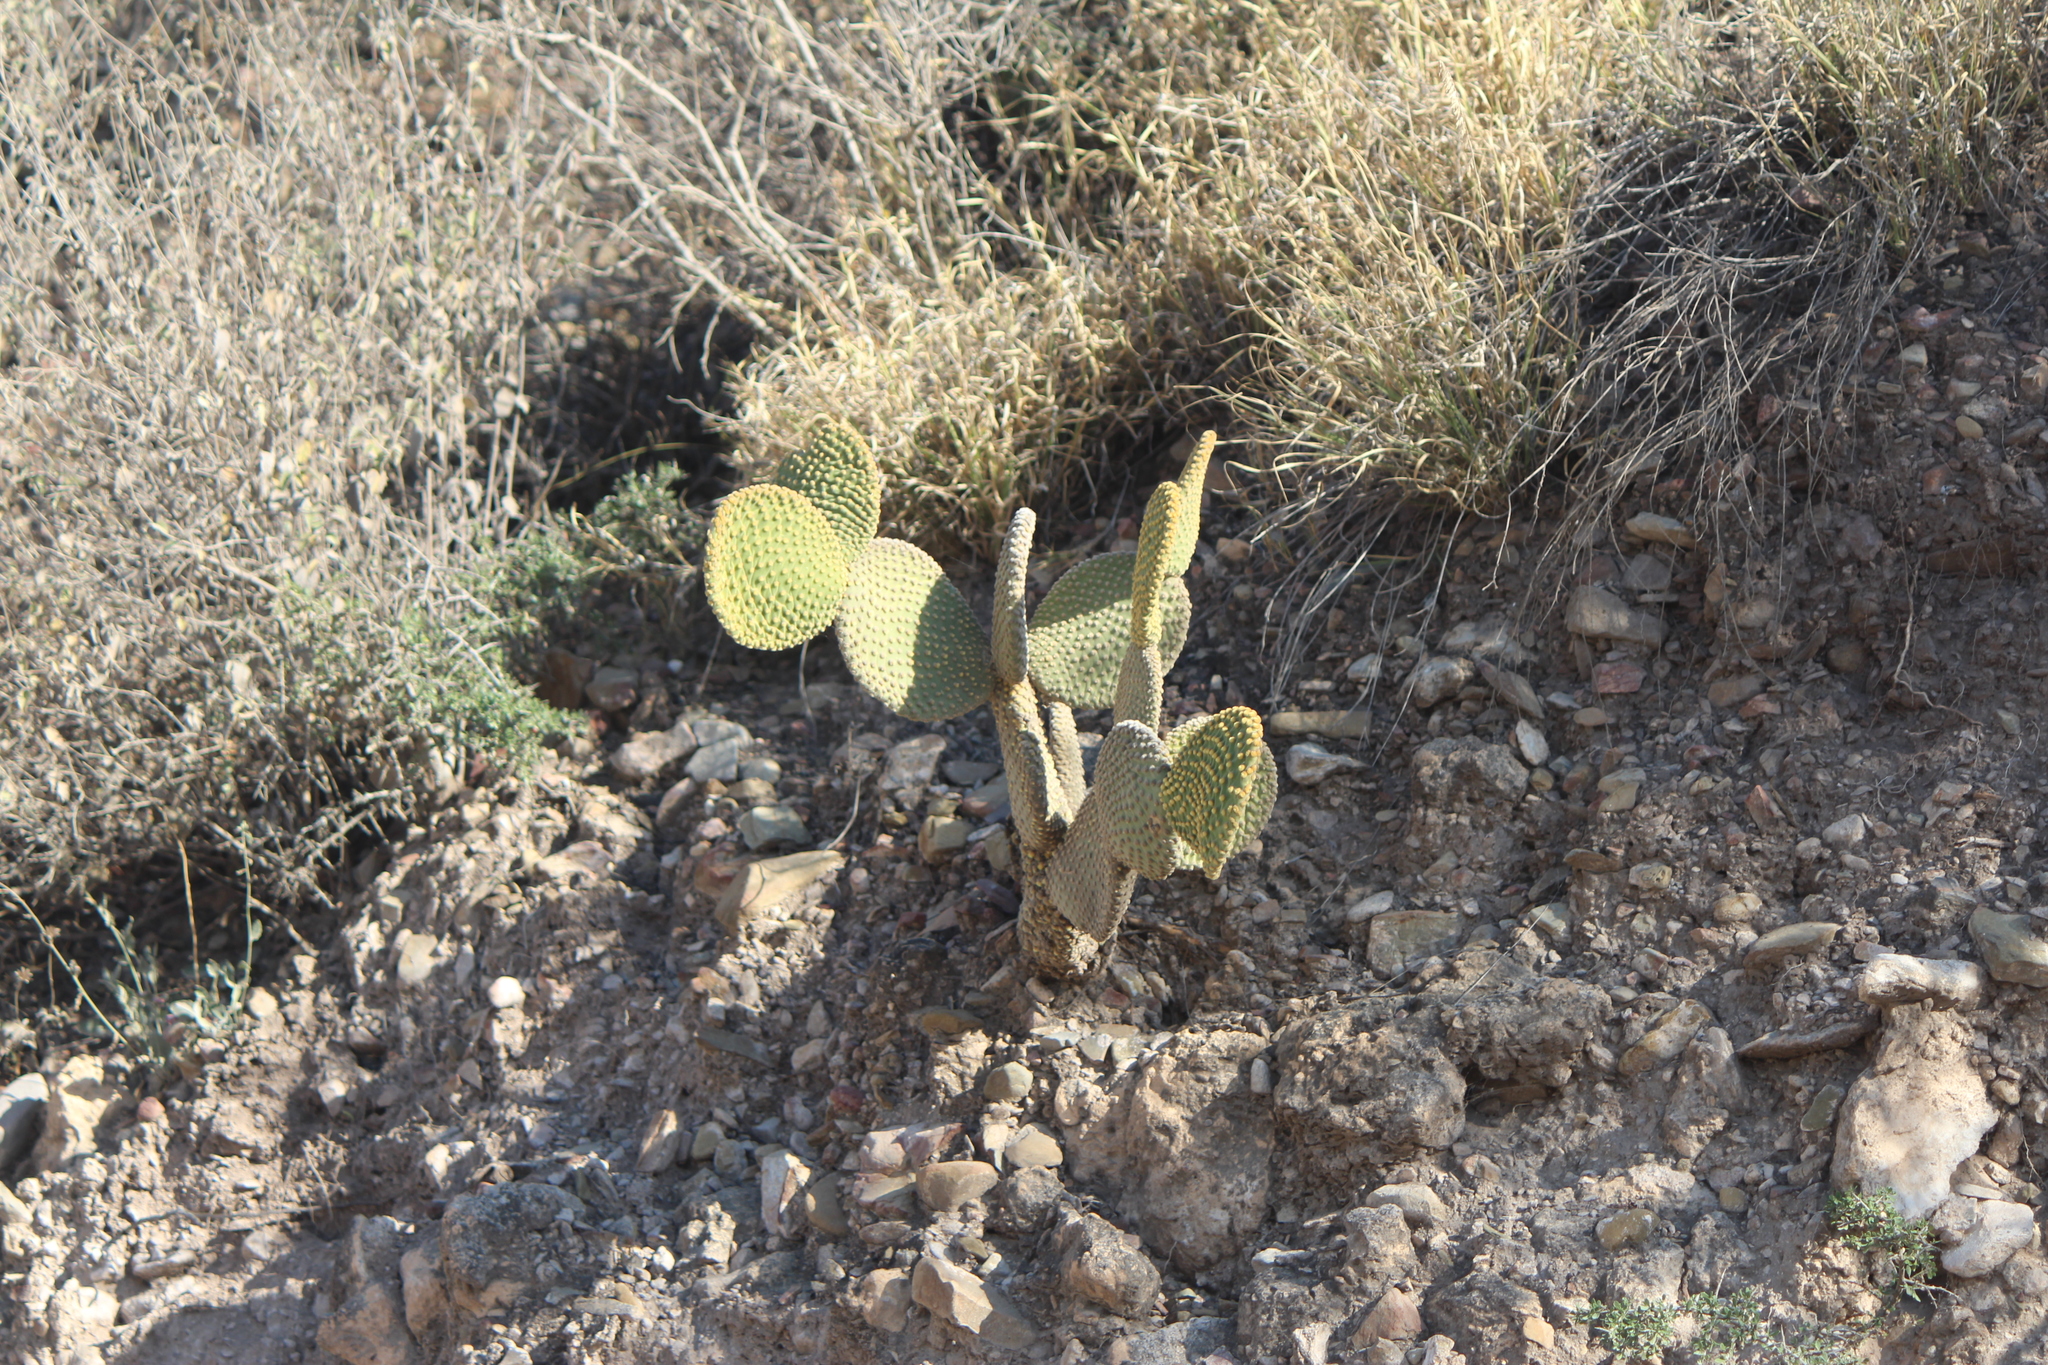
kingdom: Plantae
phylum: Tracheophyta
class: Magnoliopsida
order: Caryophyllales
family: Cactaceae
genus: Opuntia
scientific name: Opuntia microdasys
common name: Angel's-wings
